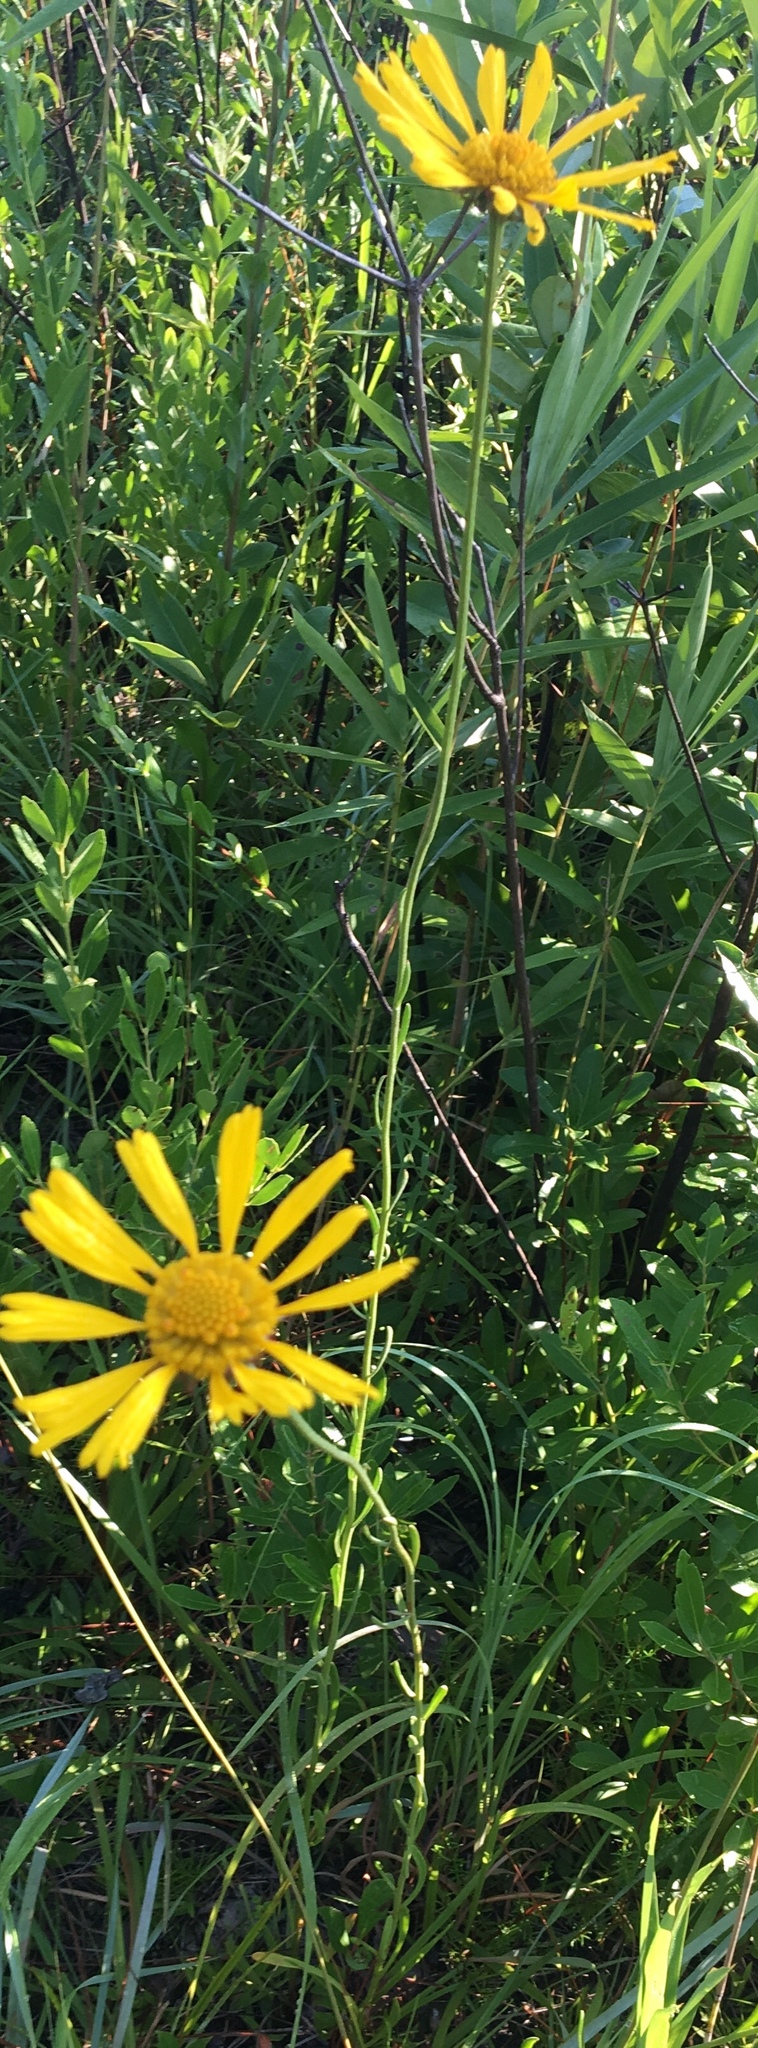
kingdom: Plantae
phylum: Tracheophyta
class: Magnoliopsida
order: Asterales
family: Asteraceae
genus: Balduina
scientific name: Balduina uniflora
